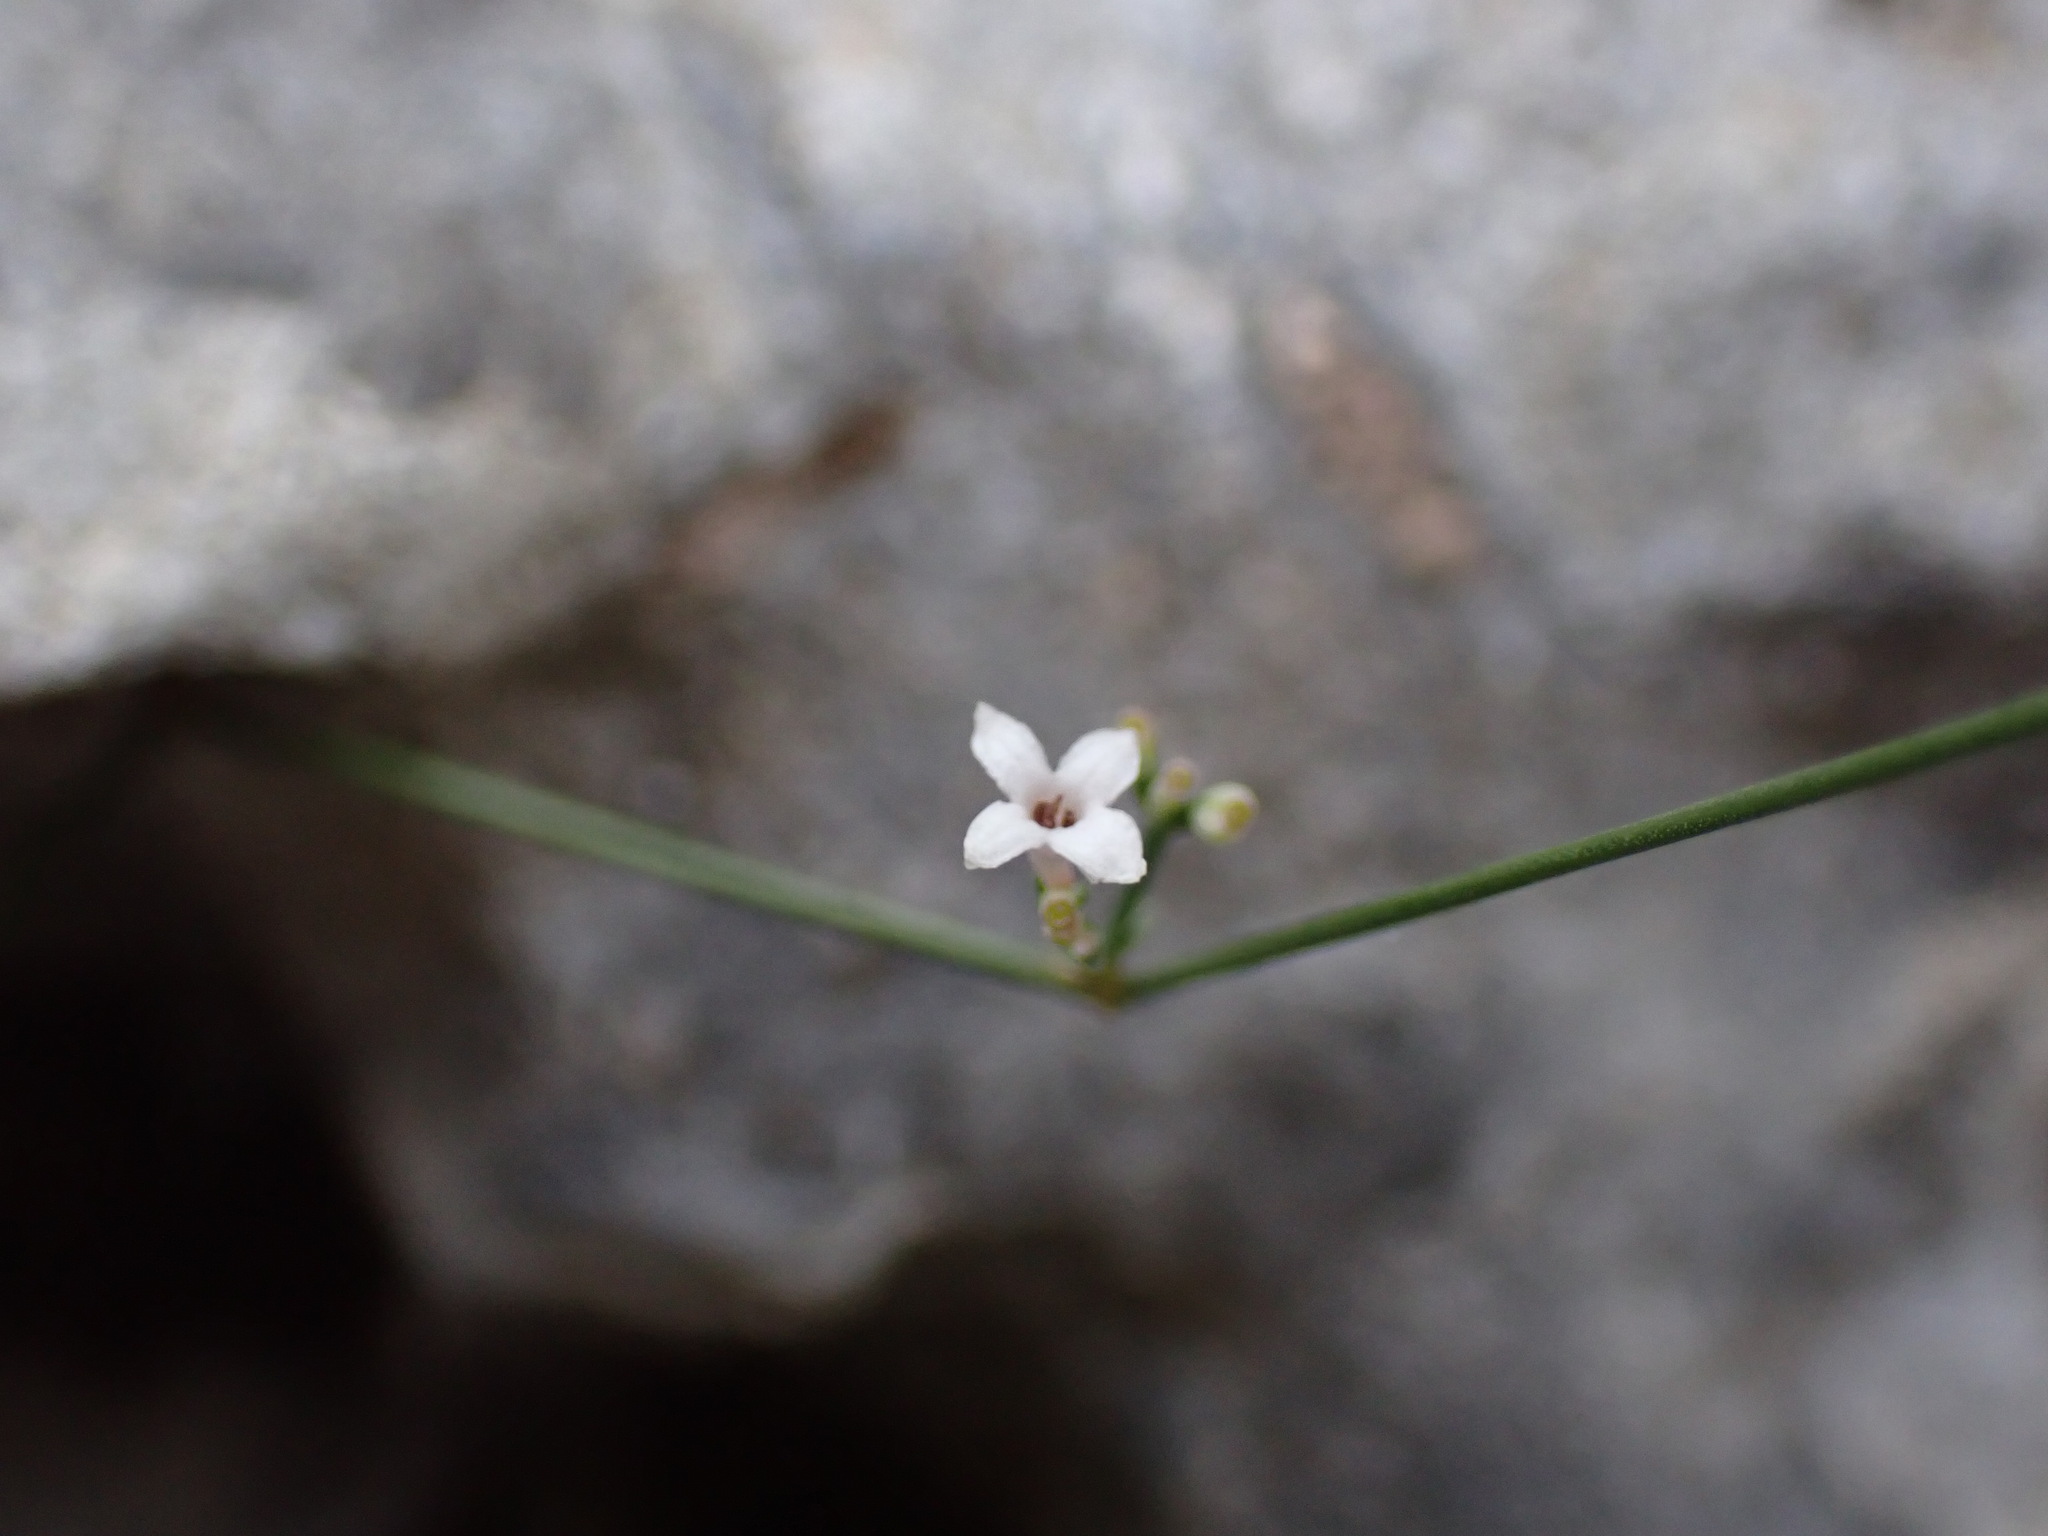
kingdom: Plantae
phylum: Tracheophyta
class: Magnoliopsida
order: Gentianales
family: Rubiaceae
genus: Cynanchica
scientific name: Cynanchica pyrenaica
